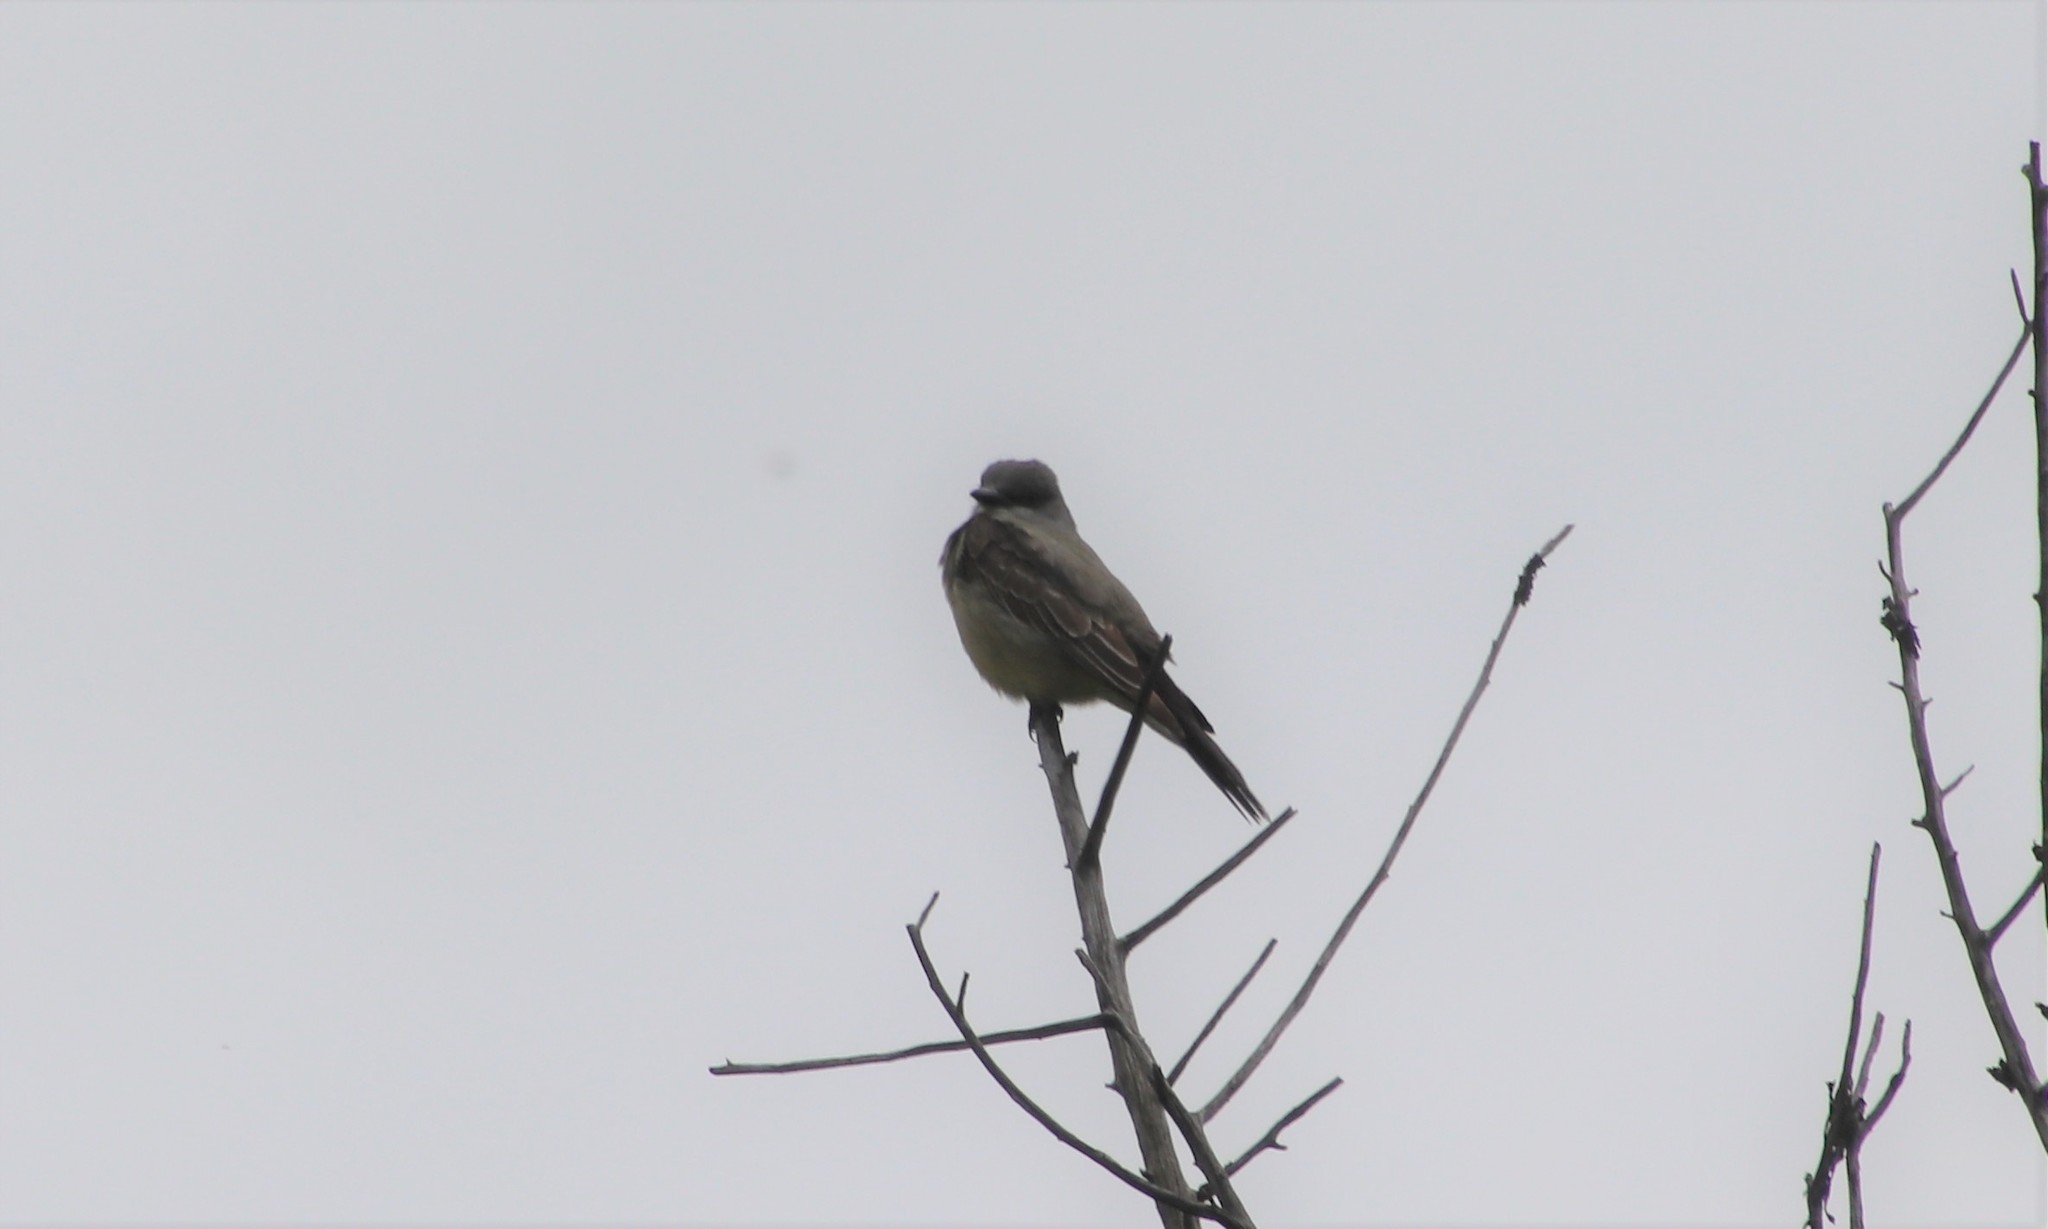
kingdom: Animalia
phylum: Chordata
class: Aves
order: Passeriformes
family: Tyrannidae
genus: Tyrannus
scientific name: Tyrannus vociferans
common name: Cassin's kingbird
